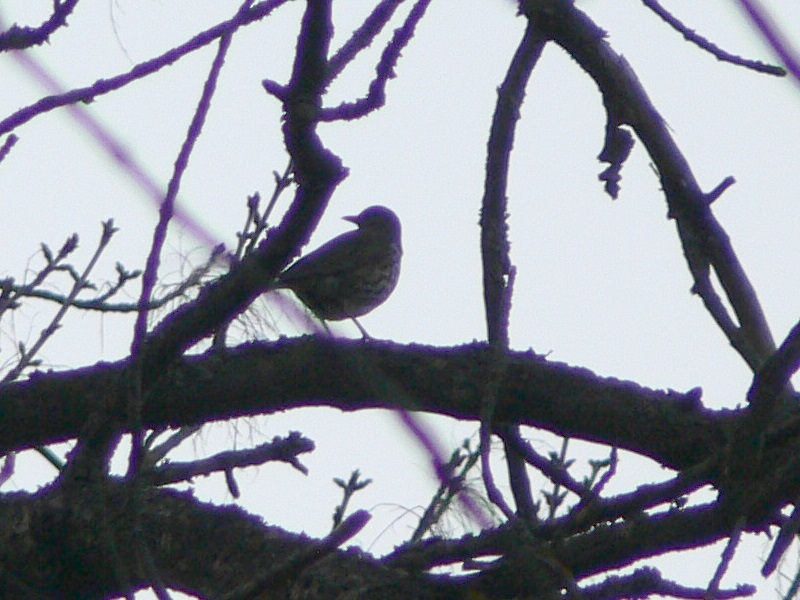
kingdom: Animalia
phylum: Chordata
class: Aves
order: Passeriformes
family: Turdidae
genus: Turdus
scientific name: Turdus philomelos
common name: Song thrush
